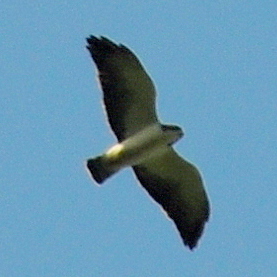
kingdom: Animalia
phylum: Chordata
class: Aves
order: Accipitriformes
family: Accipitridae
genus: Buteo
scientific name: Buteo brachyurus
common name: Short-tailed hawk
